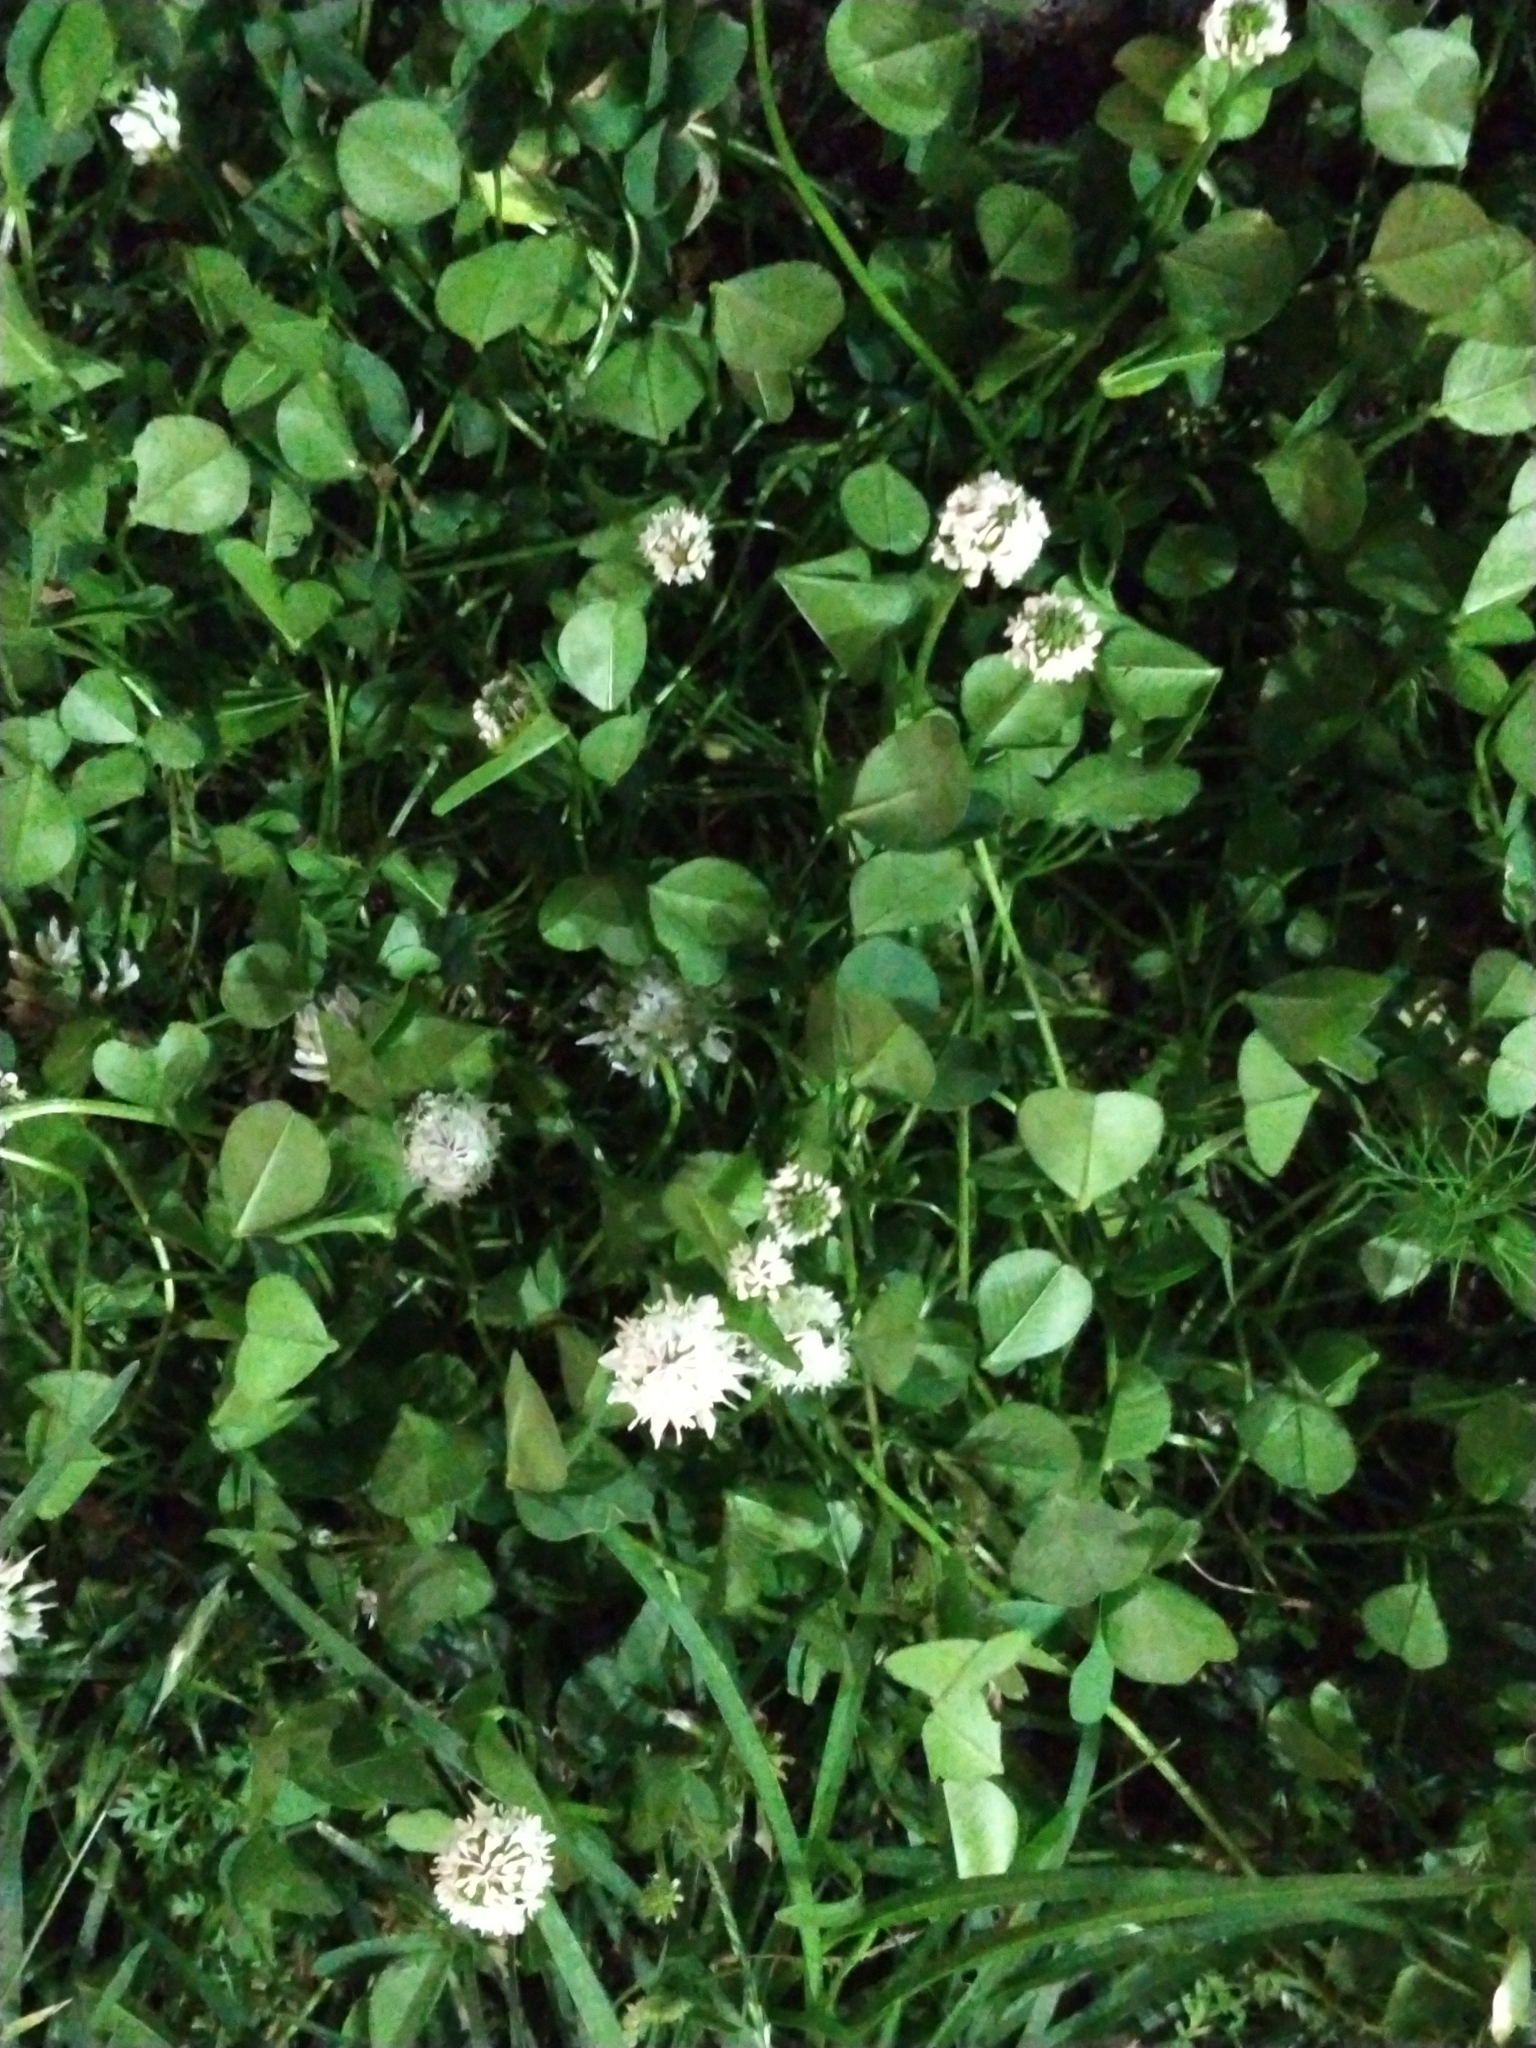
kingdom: Plantae
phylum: Tracheophyta
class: Magnoliopsida
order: Fabales
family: Fabaceae
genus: Trifolium
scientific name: Trifolium repens
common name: White clover
